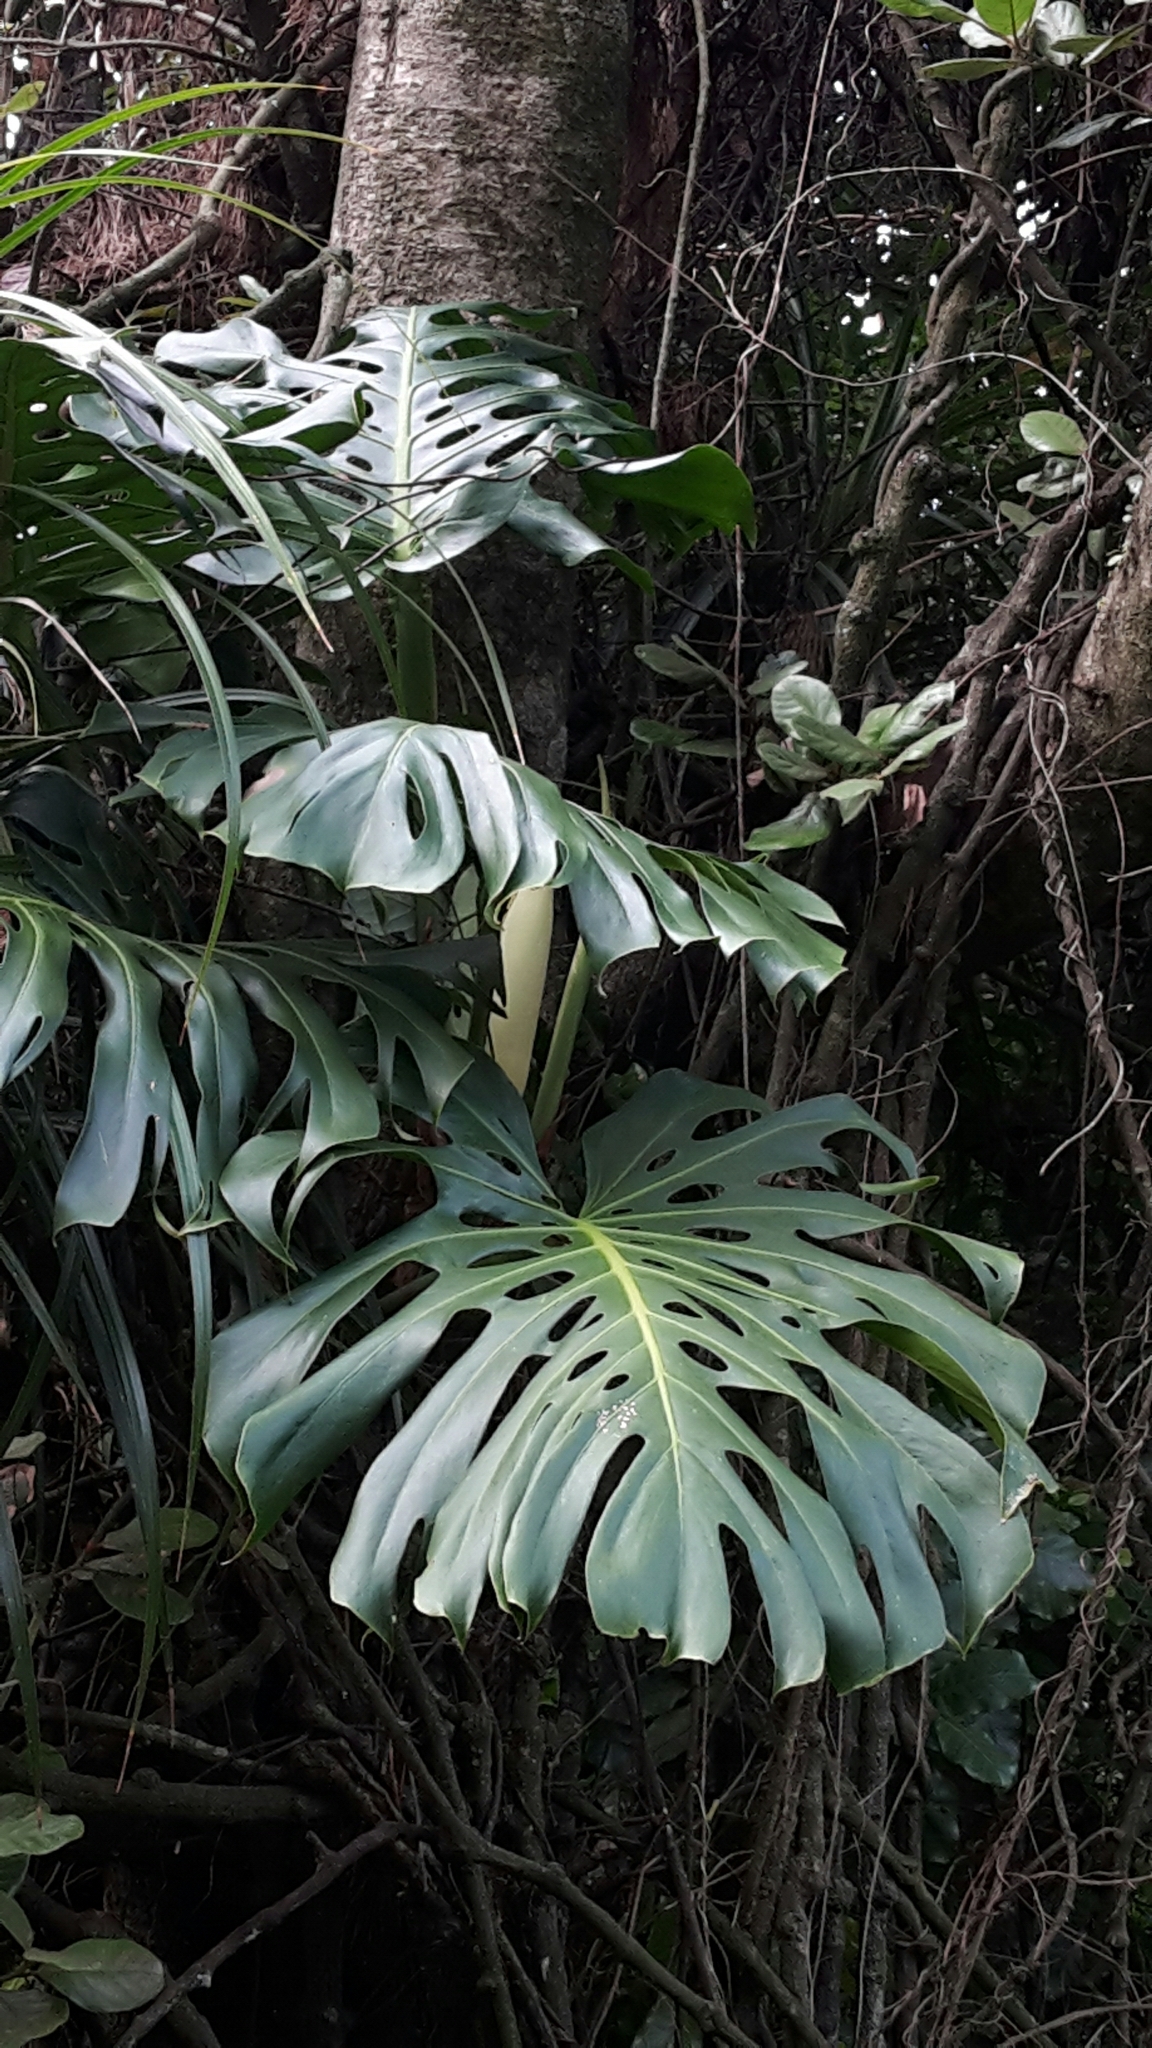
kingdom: Plantae
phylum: Tracheophyta
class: Liliopsida
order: Alismatales
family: Araceae
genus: Monstera
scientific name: Monstera deliciosa
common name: Cut-leaf-philodendron
